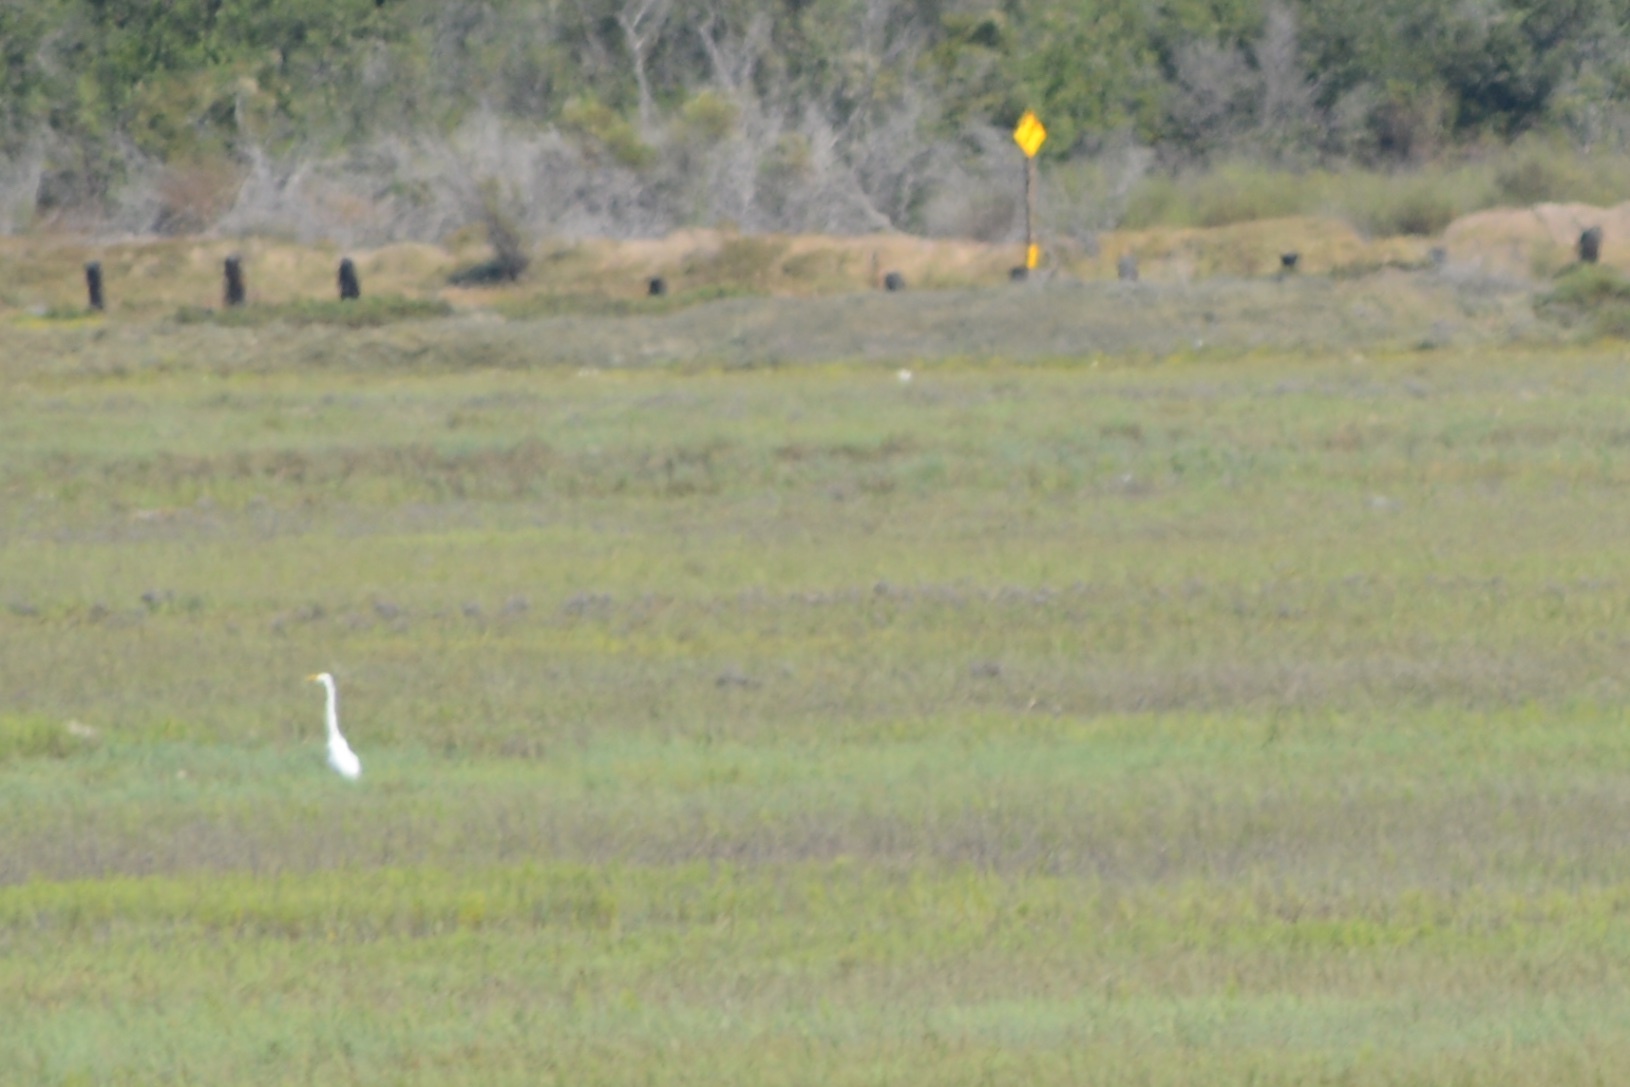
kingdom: Animalia
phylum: Chordata
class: Aves
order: Pelecaniformes
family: Ardeidae
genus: Ardea
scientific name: Ardea alba
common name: Great egret
